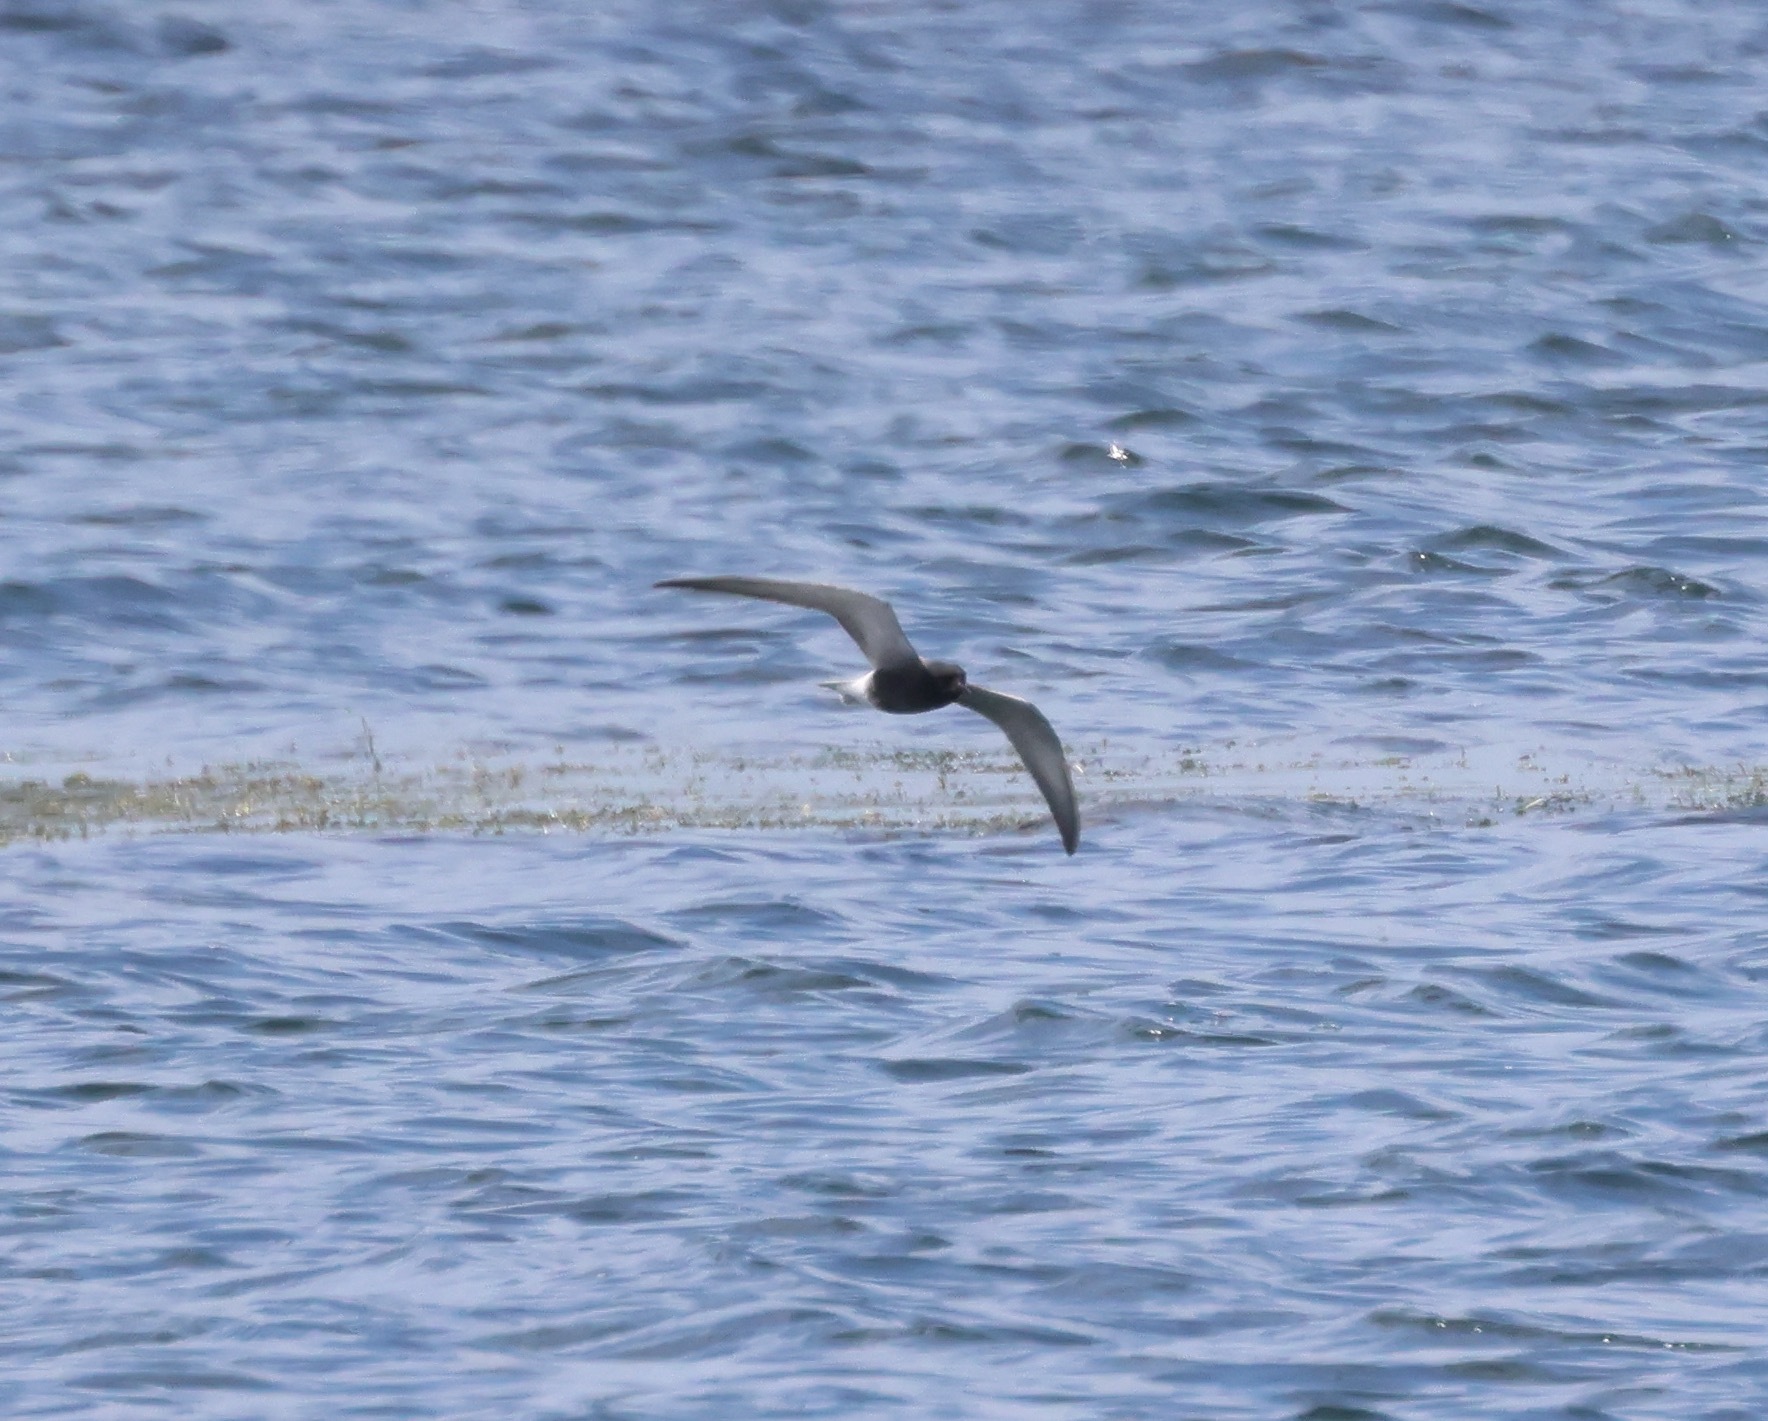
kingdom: Animalia
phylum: Chordata
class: Aves
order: Charadriiformes
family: Laridae
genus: Chlidonias
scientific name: Chlidonias niger
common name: Black tern
